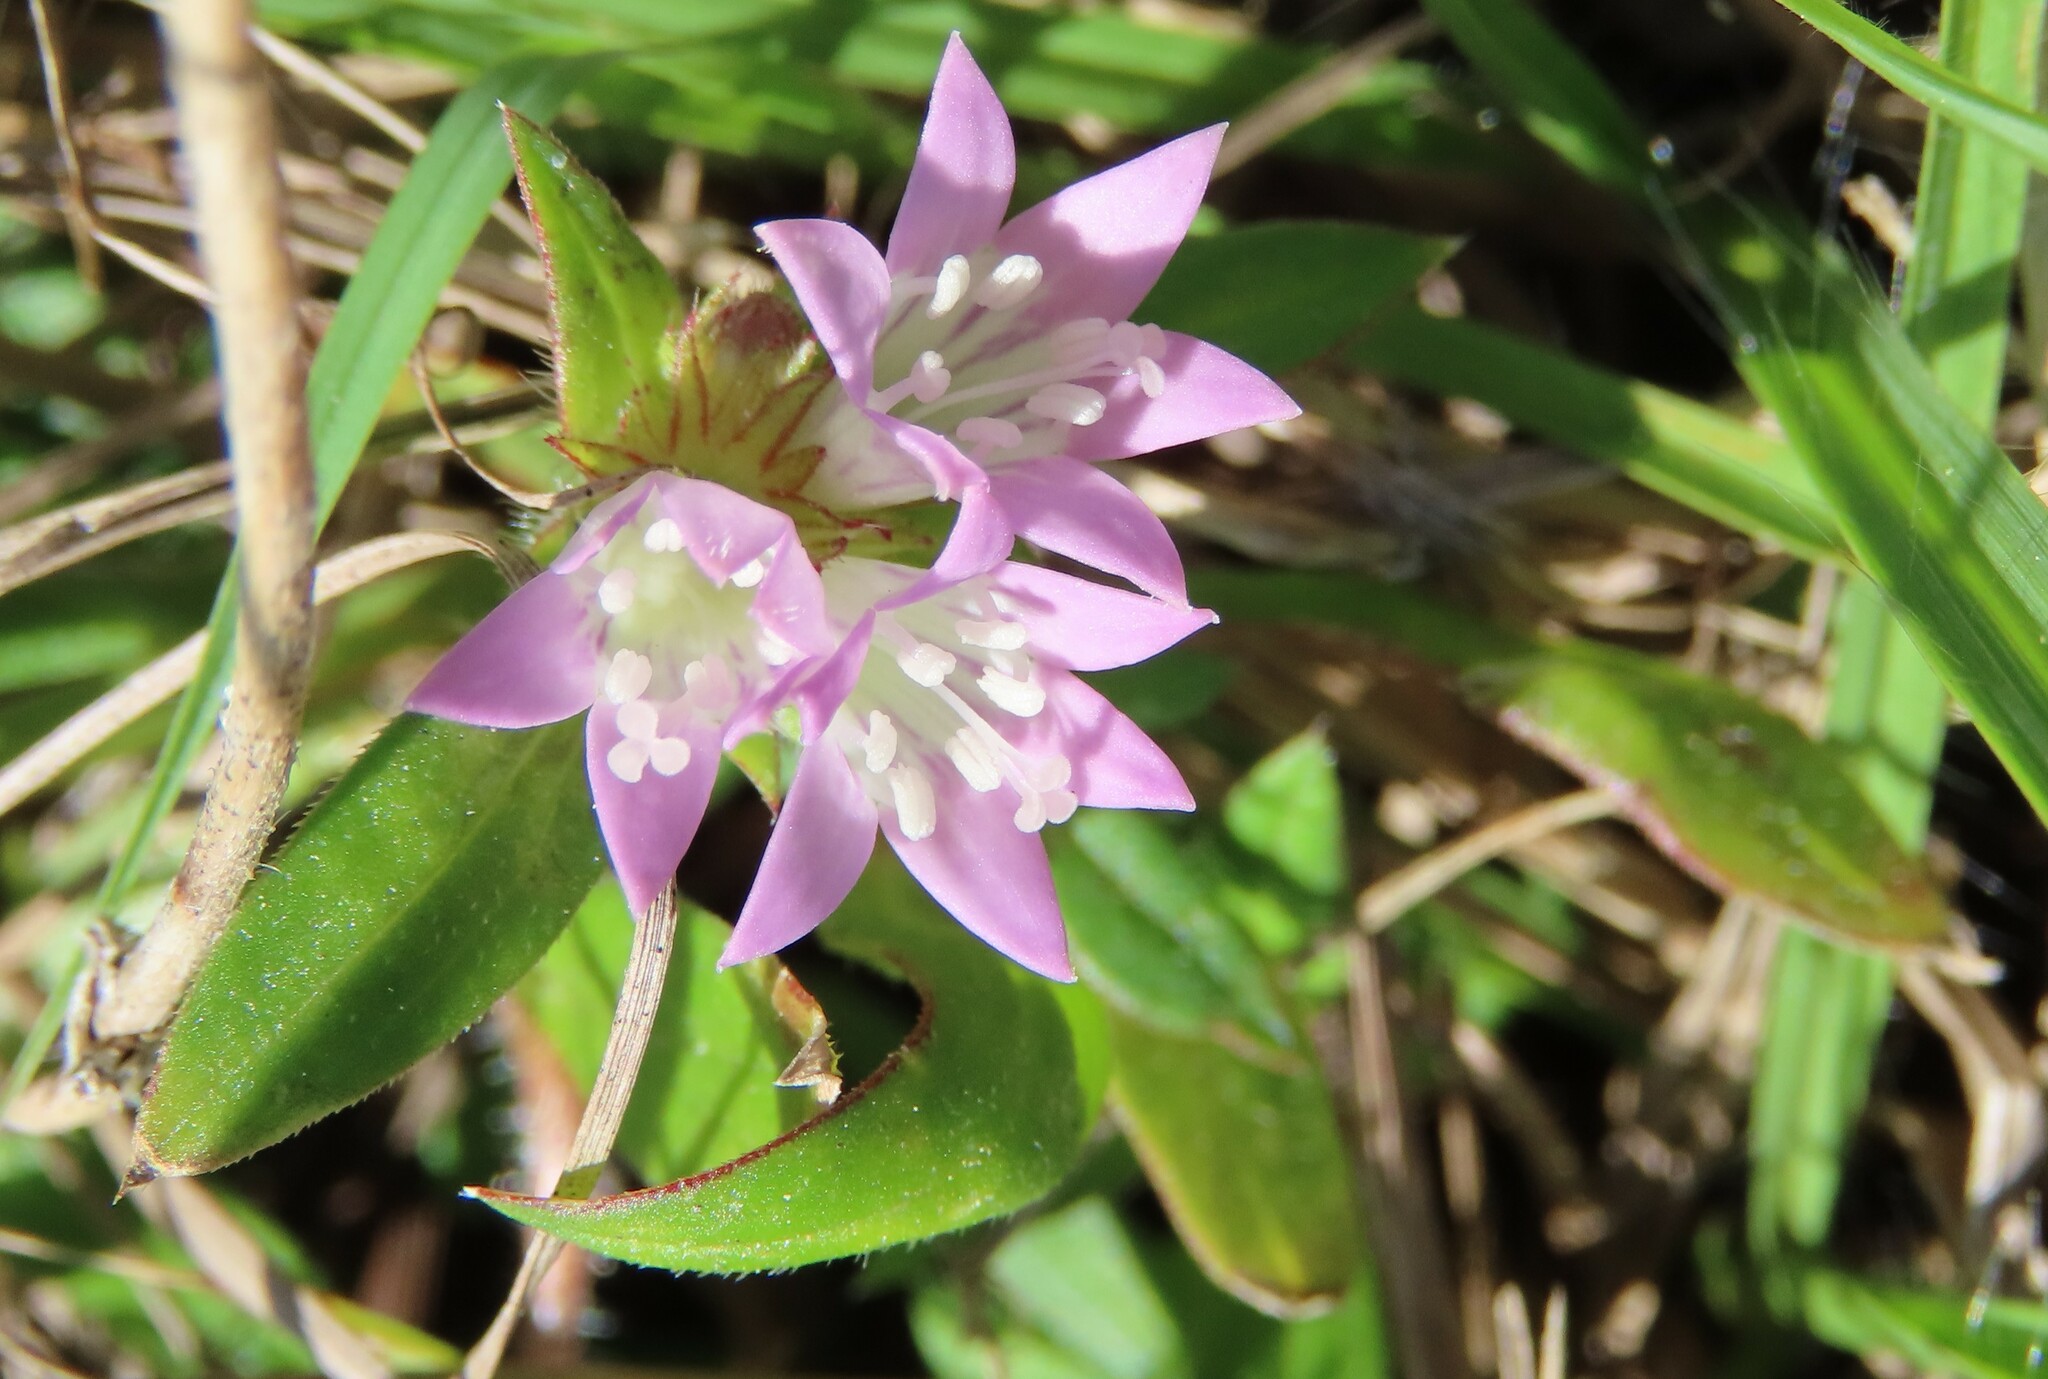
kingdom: Plantae
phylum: Tracheophyta
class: Magnoliopsida
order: Gentianales
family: Rubiaceae
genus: Richardia
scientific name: Richardia grandiflora
